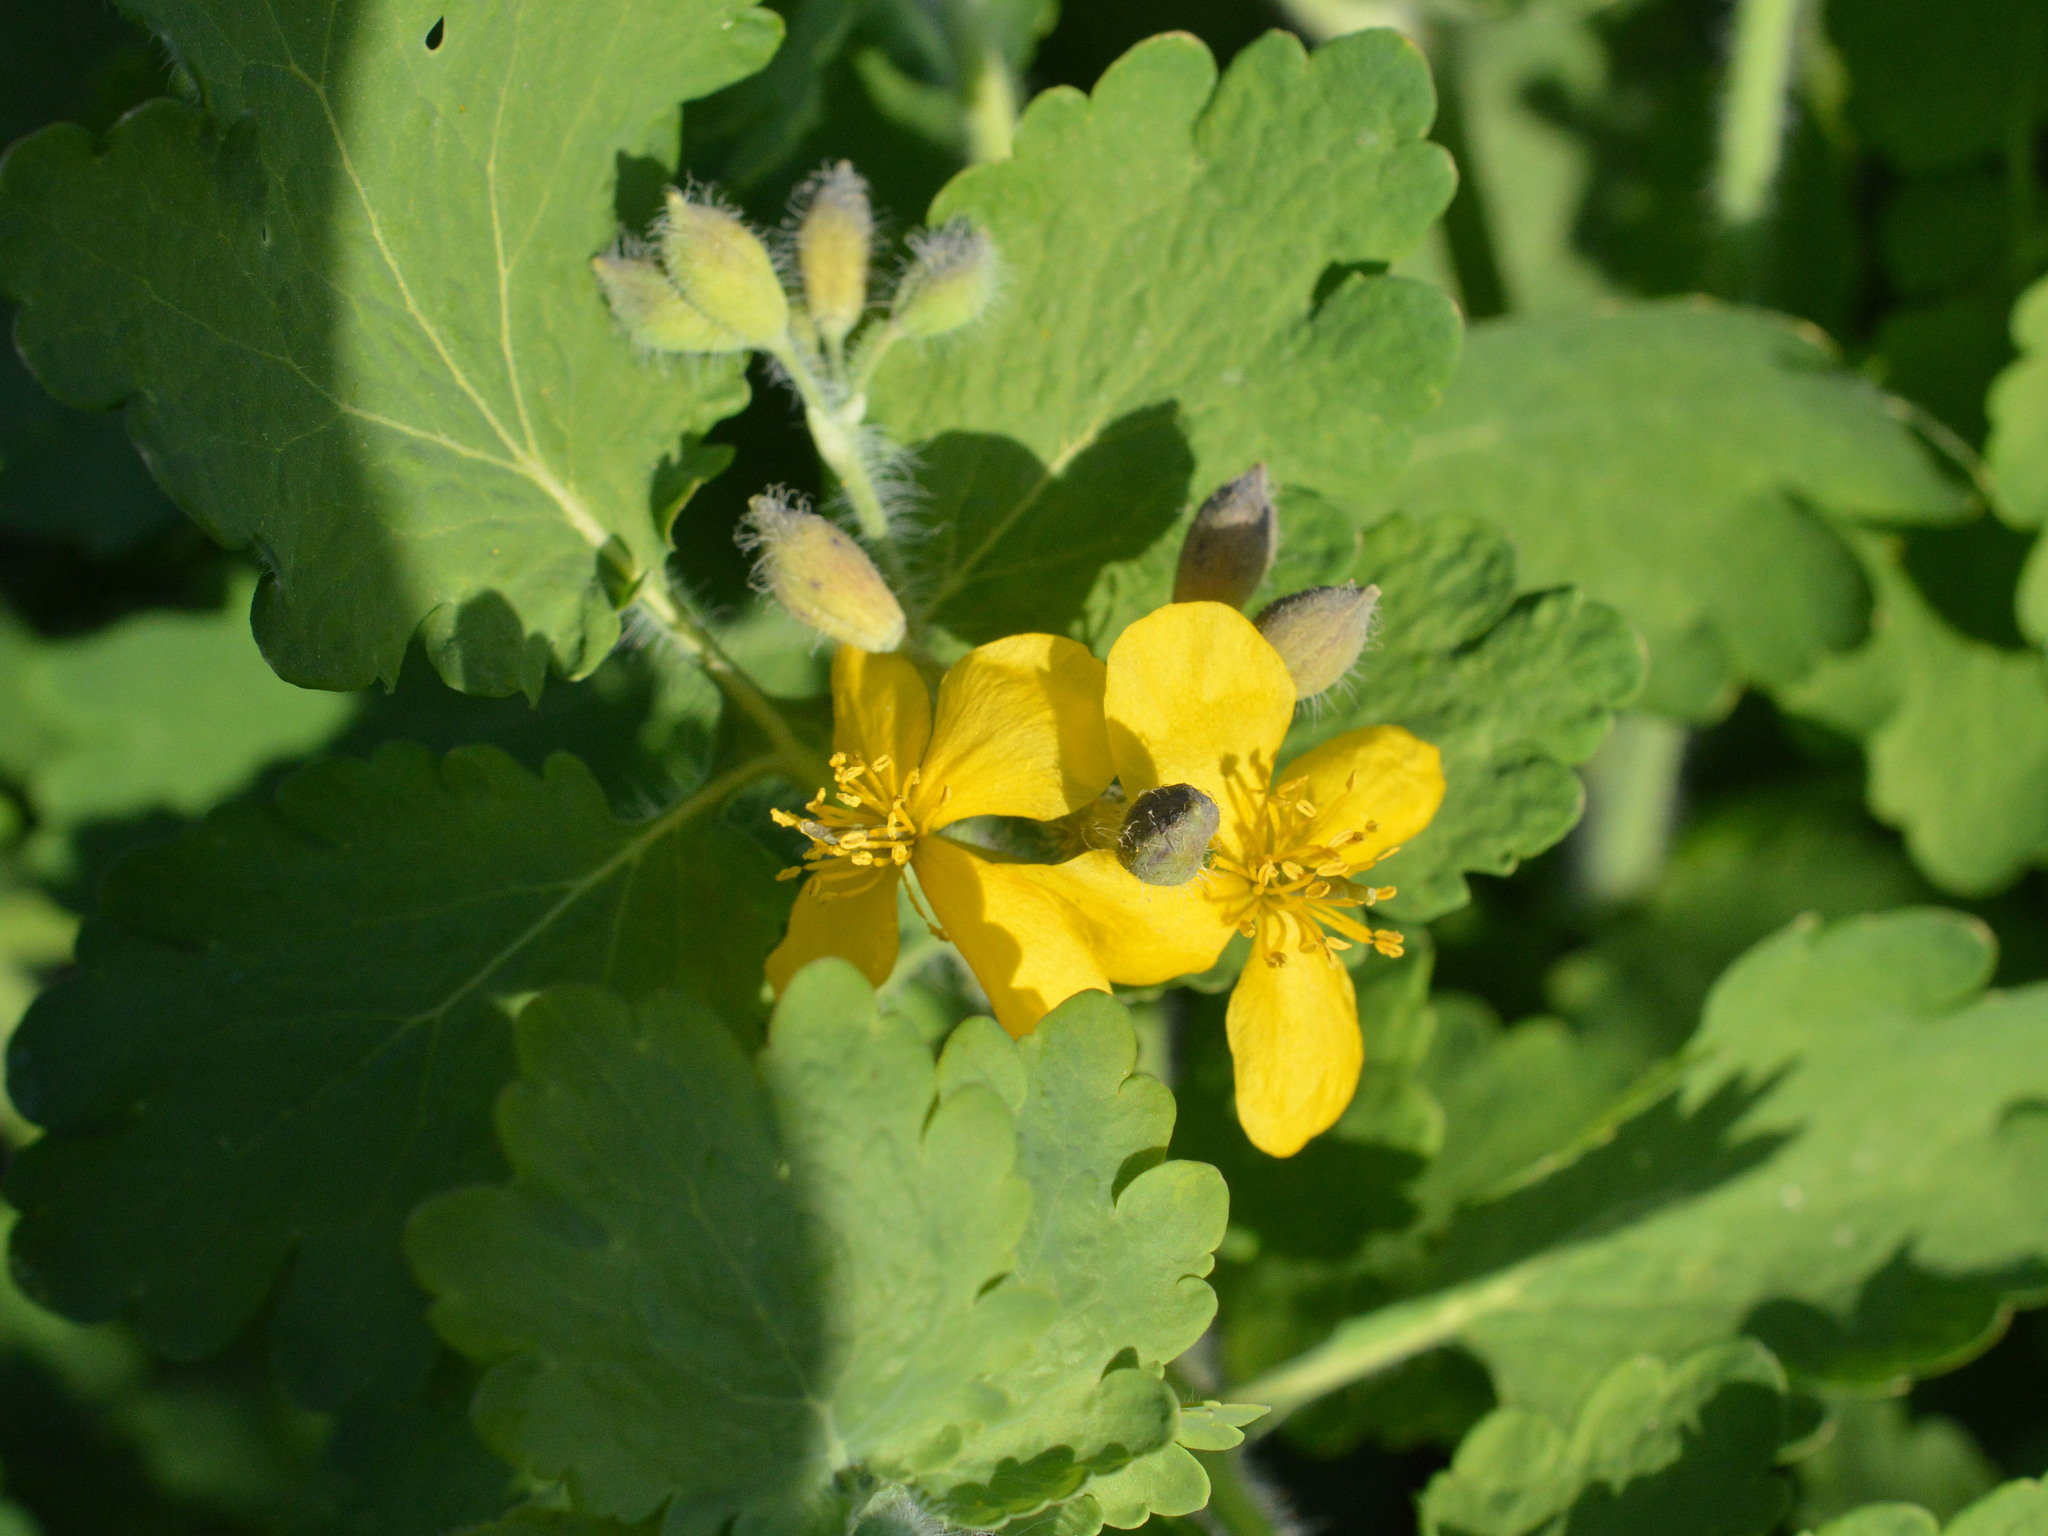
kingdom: Plantae
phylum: Tracheophyta
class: Magnoliopsida
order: Ranunculales
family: Papaveraceae
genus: Chelidonium
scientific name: Chelidonium majus
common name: Greater celandine
